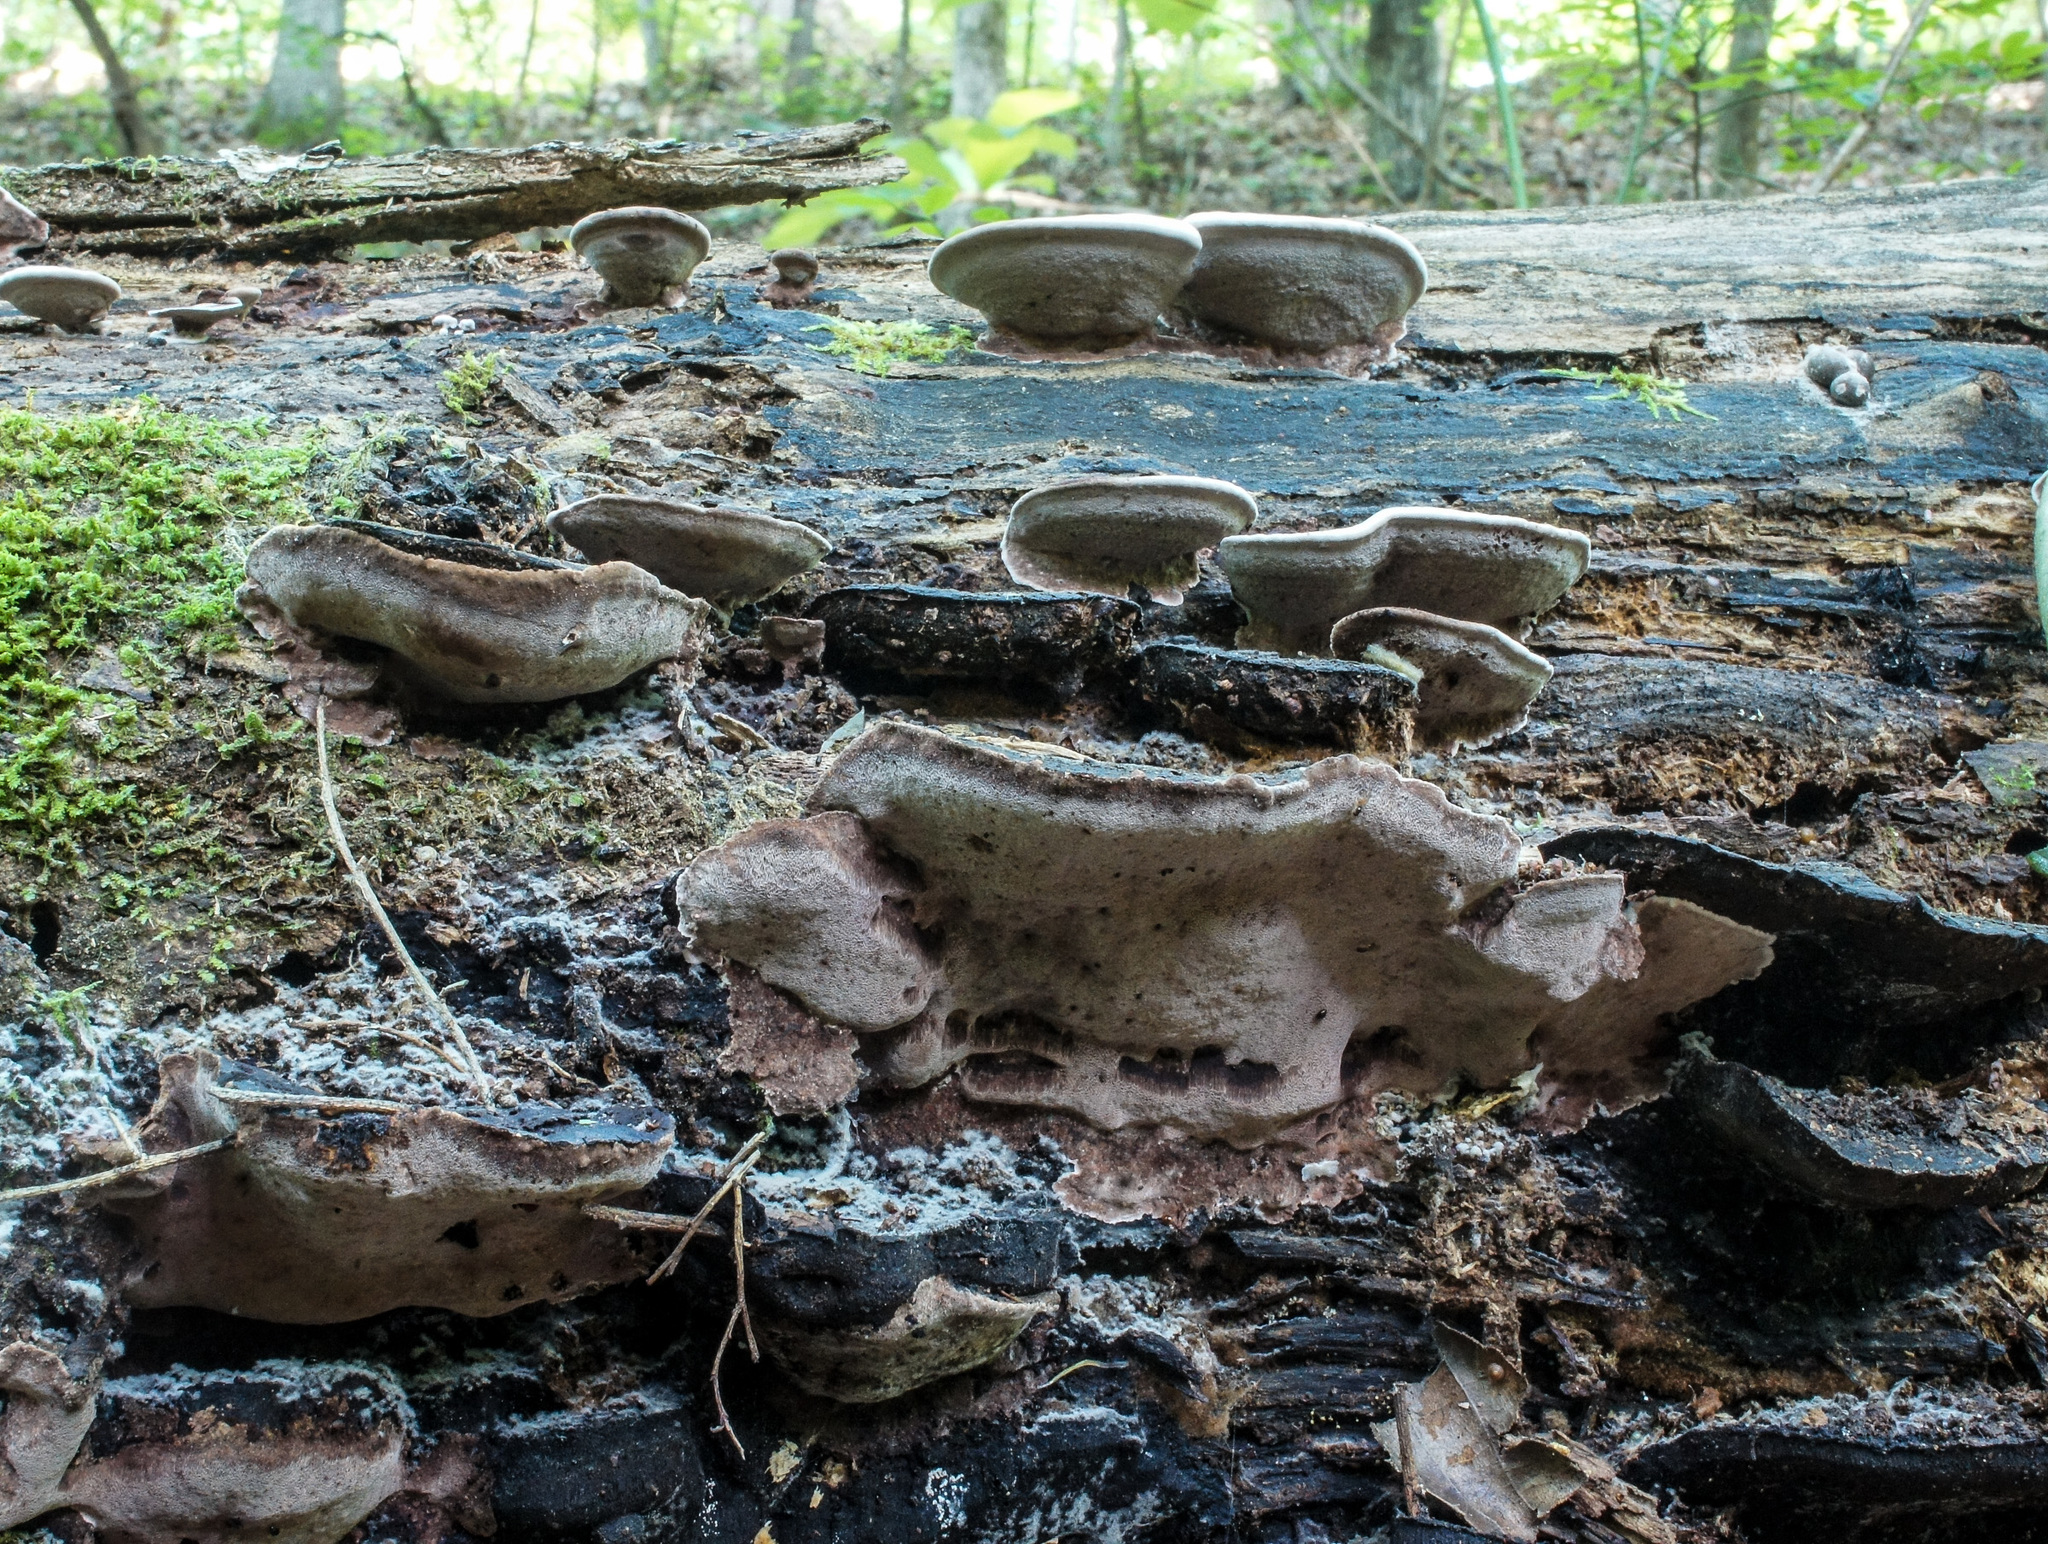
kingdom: Fungi
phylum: Basidiomycota
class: Agaricomycetes
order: Polyporales
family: Steccherinaceae
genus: Nigroporus
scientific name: Nigroporus vinosus
